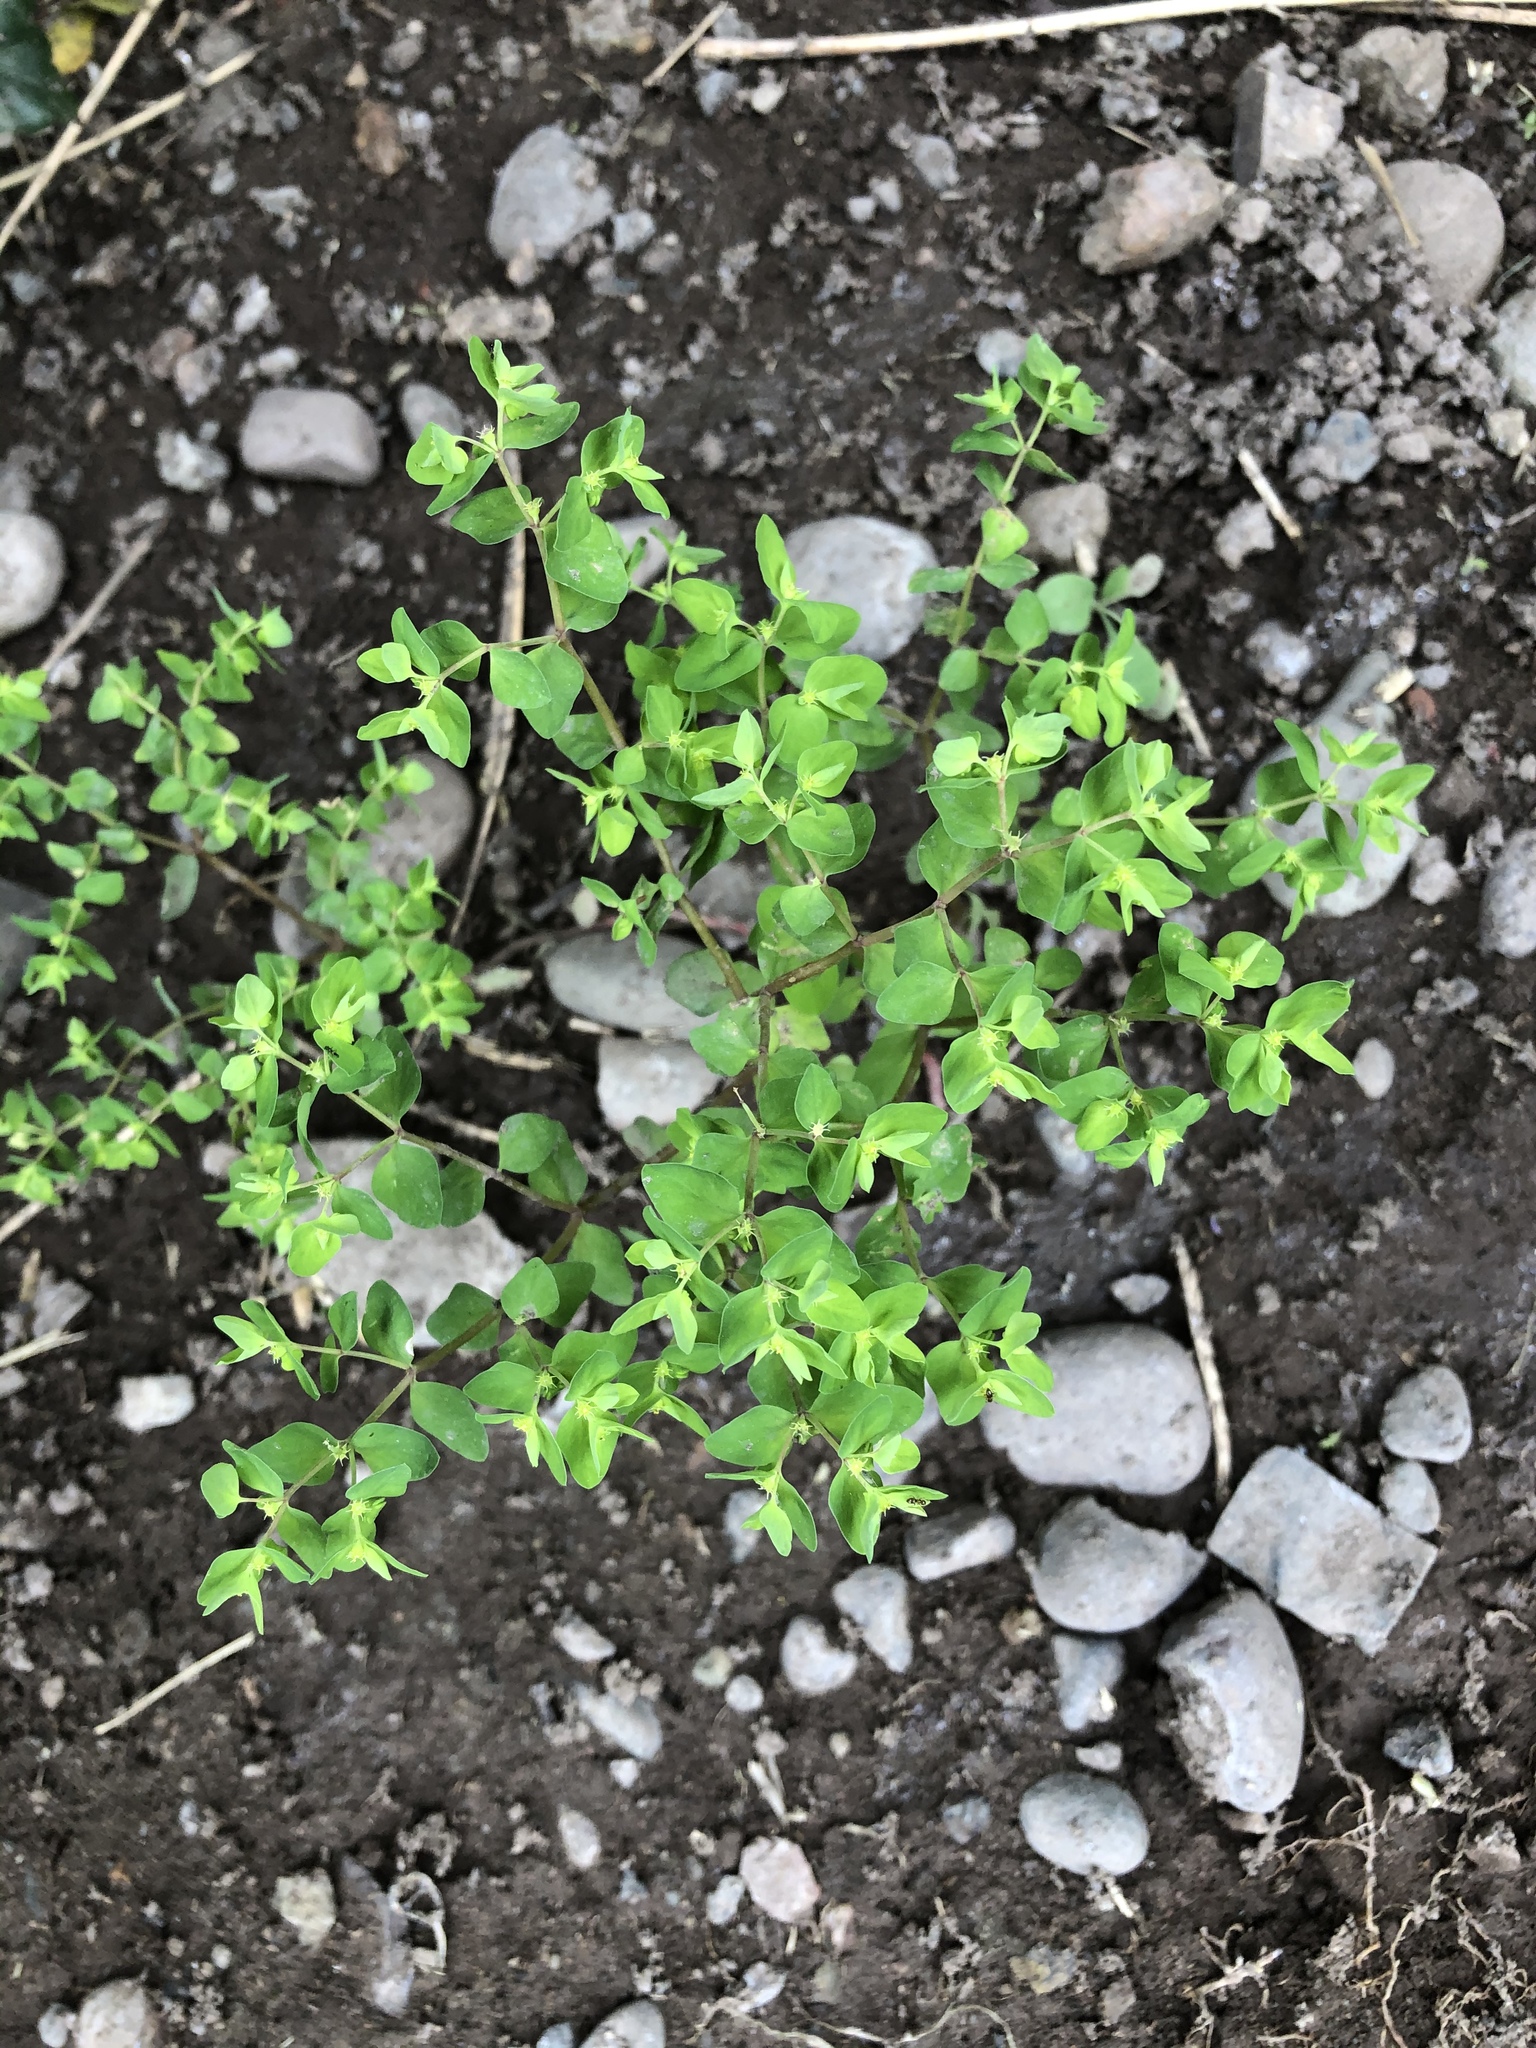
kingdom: Plantae
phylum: Tracheophyta
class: Magnoliopsida
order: Malpighiales
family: Euphorbiaceae
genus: Euphorbia
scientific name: Euphorbia peplus
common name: Petty spurge
